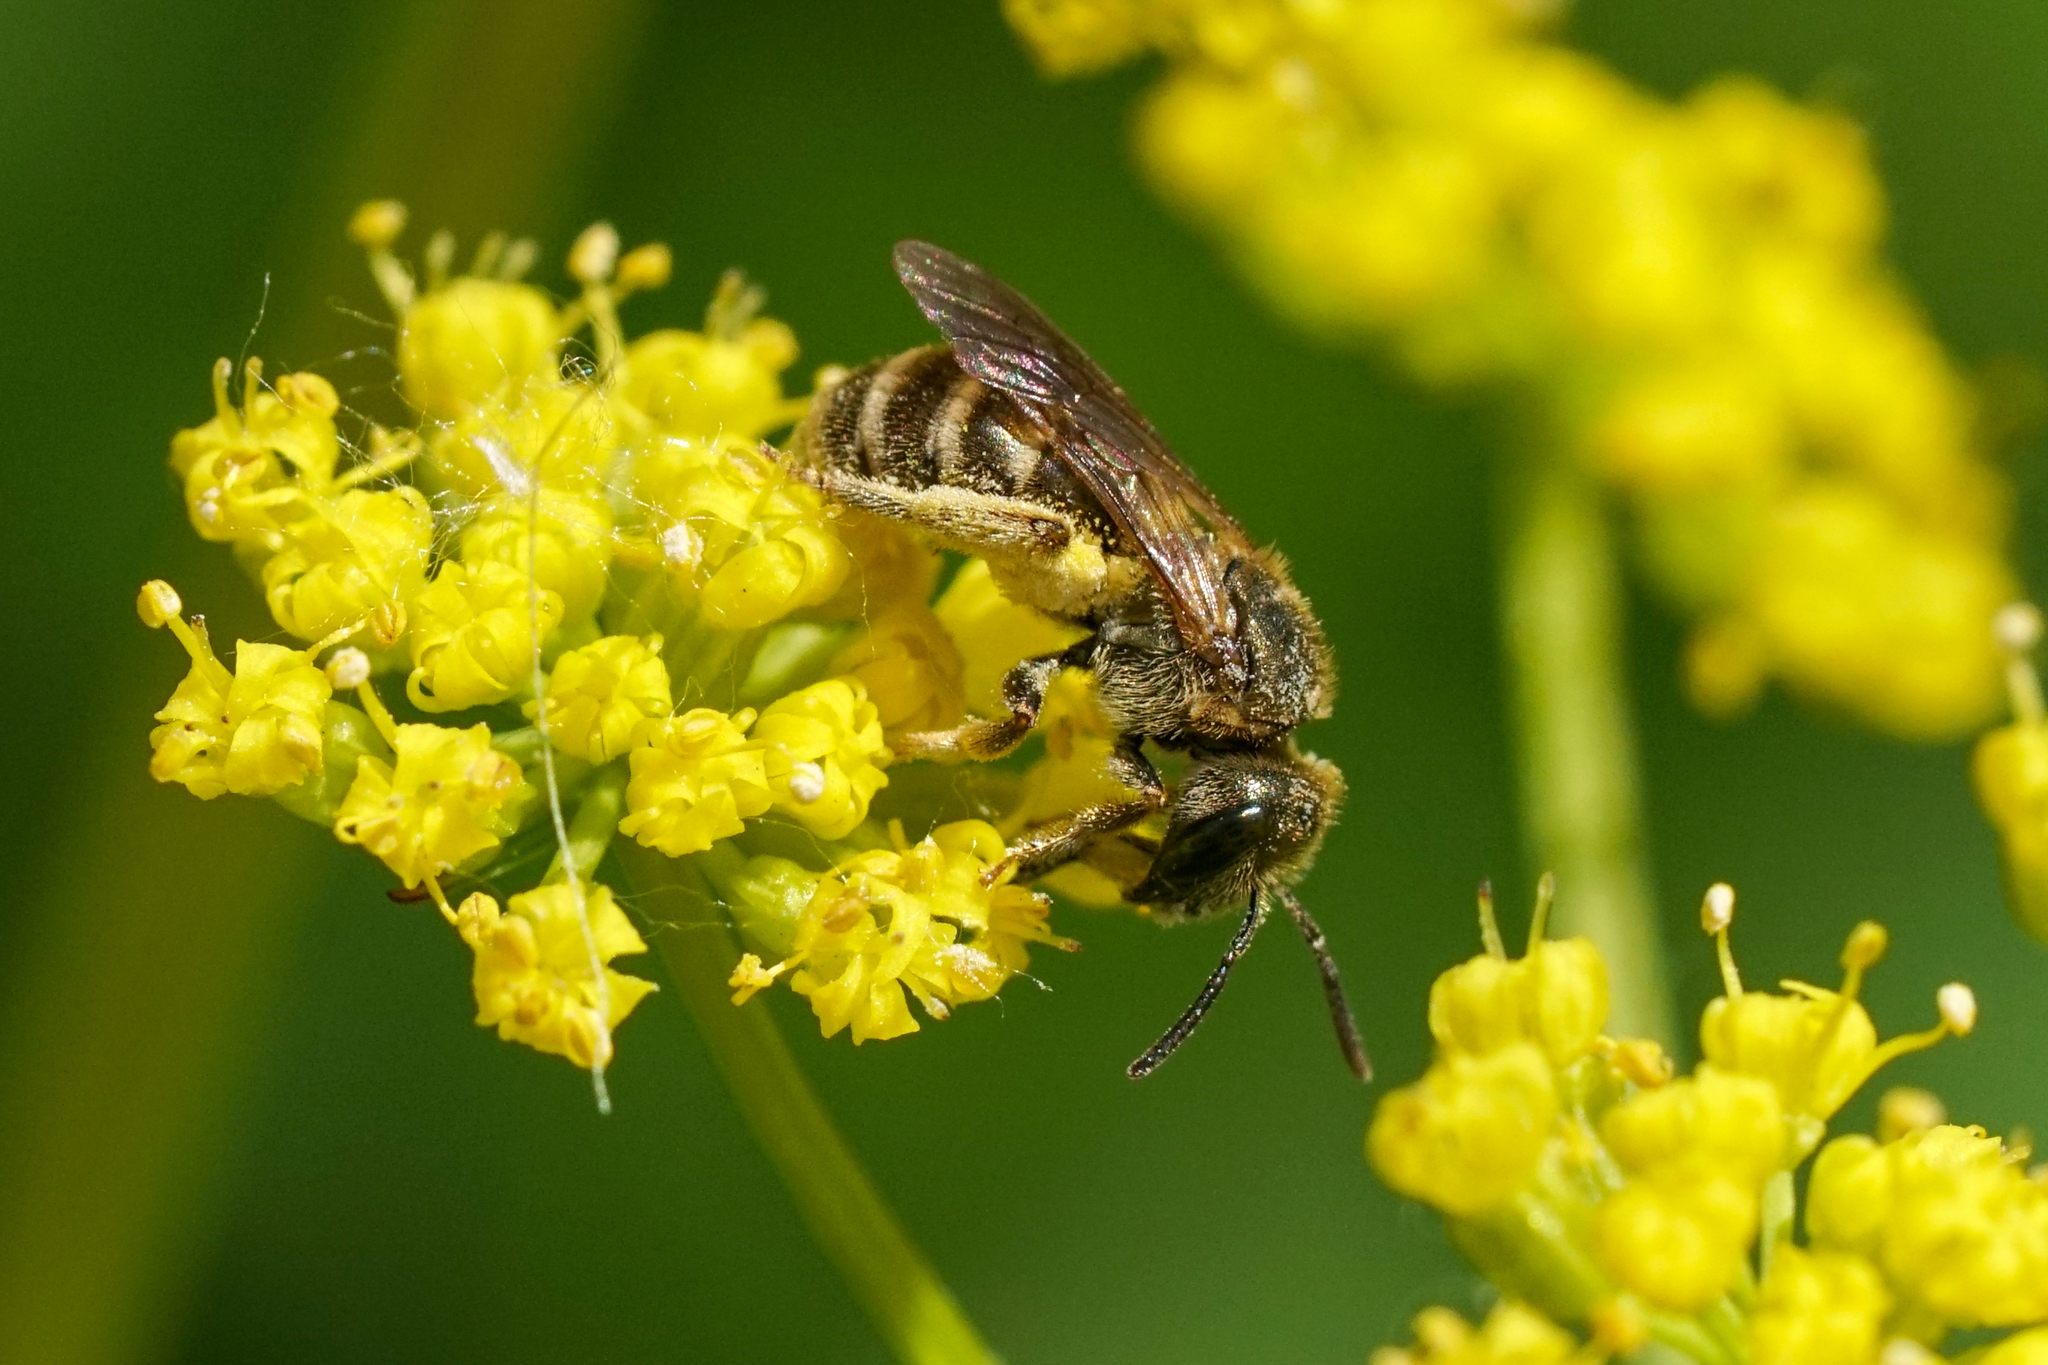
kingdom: Animalia
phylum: Arthropoda
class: Insecta
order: Hymenoptera
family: Halictidae
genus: Halictus
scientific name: Halictus confusus
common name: Southern bronze furrow bee
